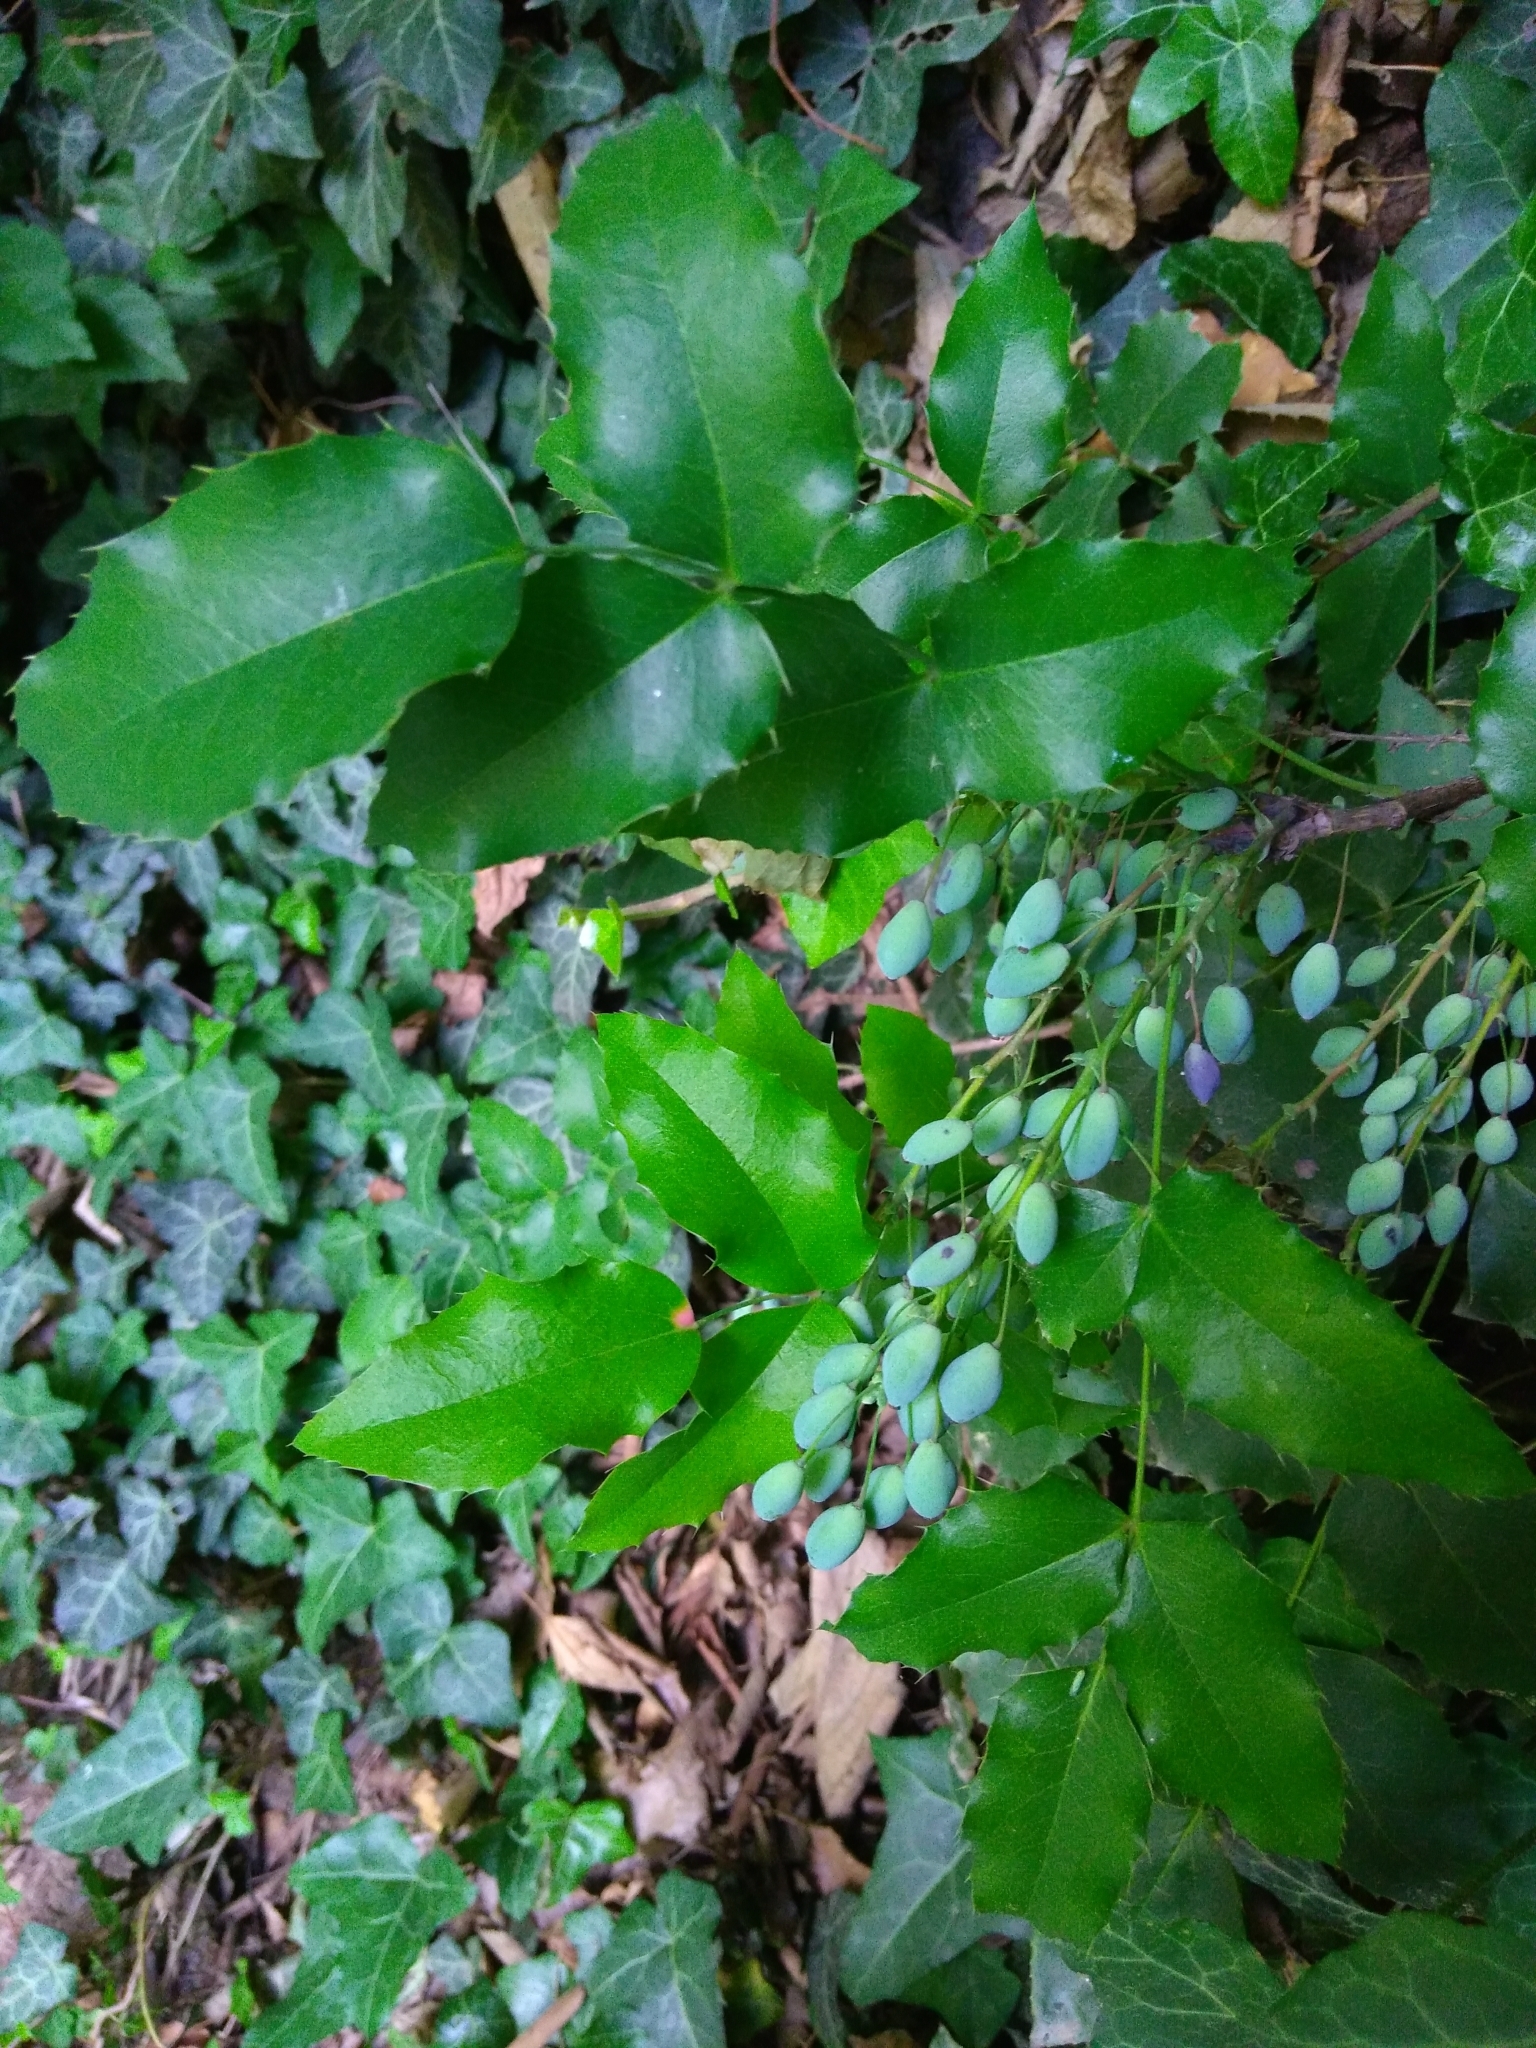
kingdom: Plantae
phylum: Tracheophyta
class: Magnoliopsida
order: Ranunculales
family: Berberidaceae
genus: Mahonia
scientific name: Mahonia aquifolium
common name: Oregon-grape
